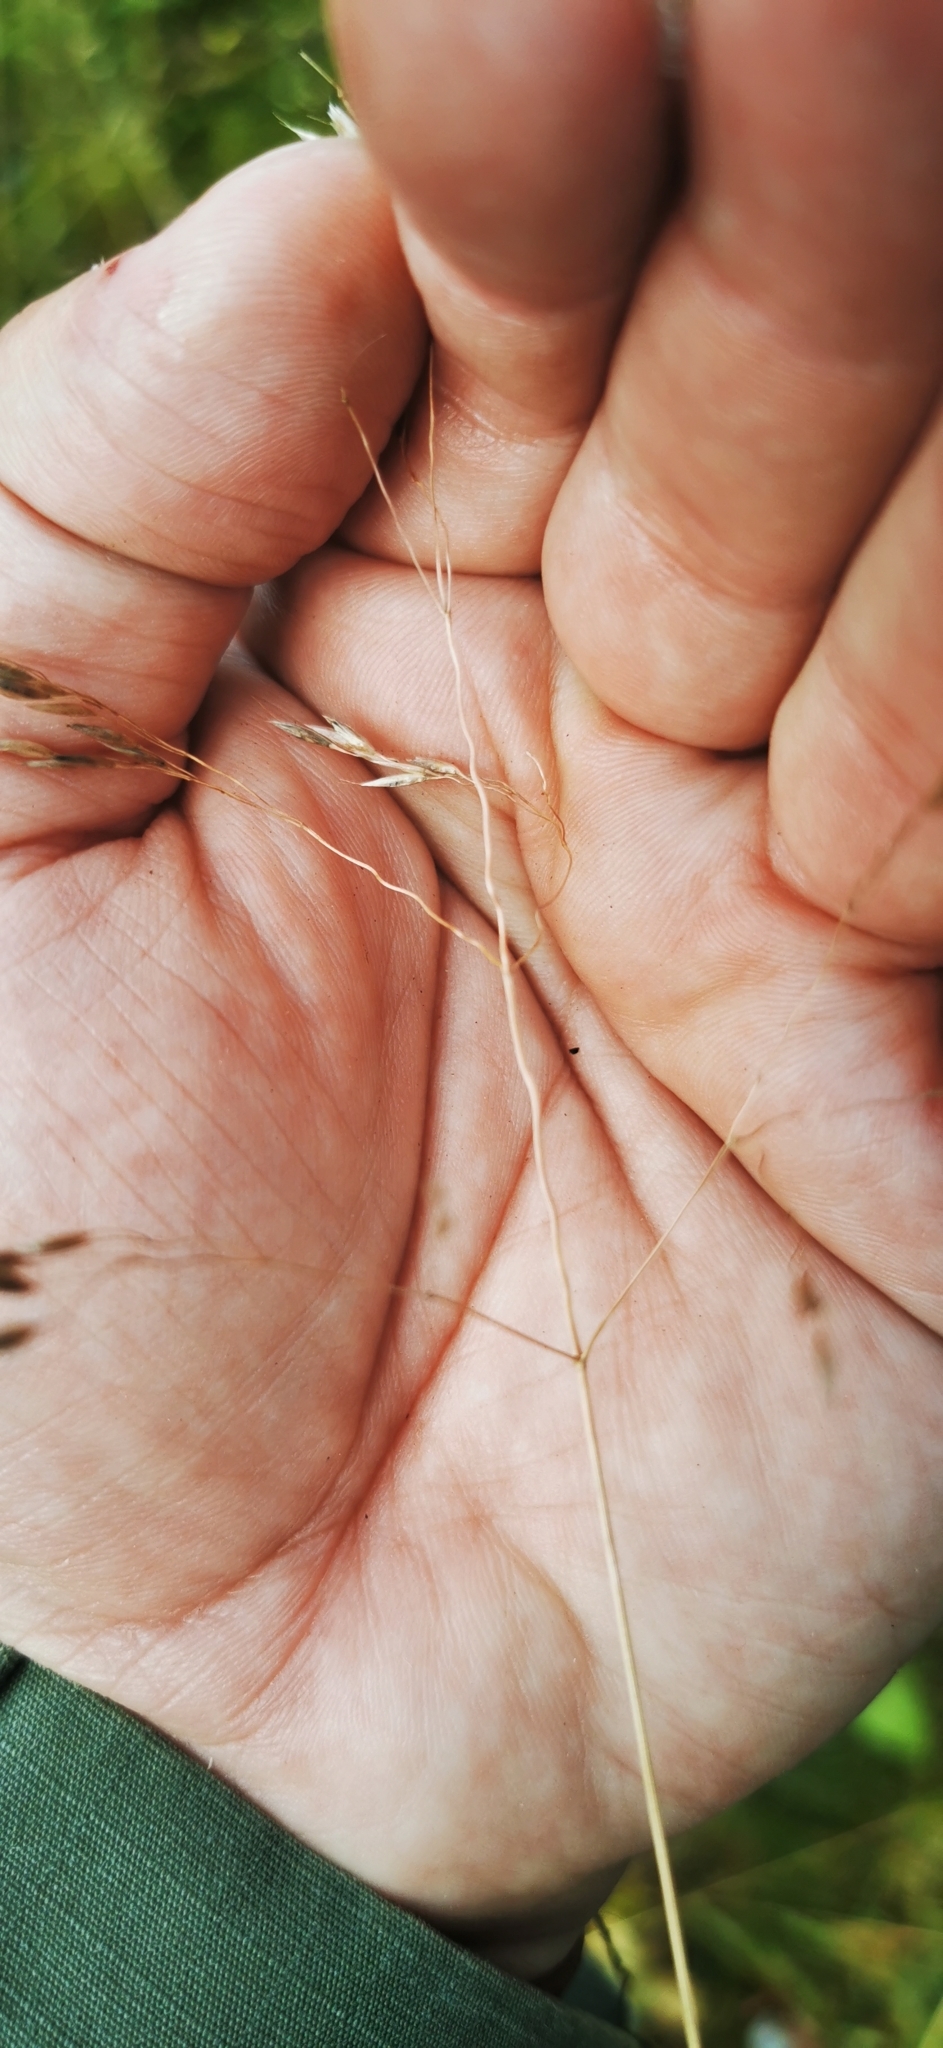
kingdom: Plantae
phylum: Tracheophyta
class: Liliopsida
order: Poales
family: Poaceae
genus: Avenella
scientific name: Avenella flexuosa
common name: Wavy hairgrass
